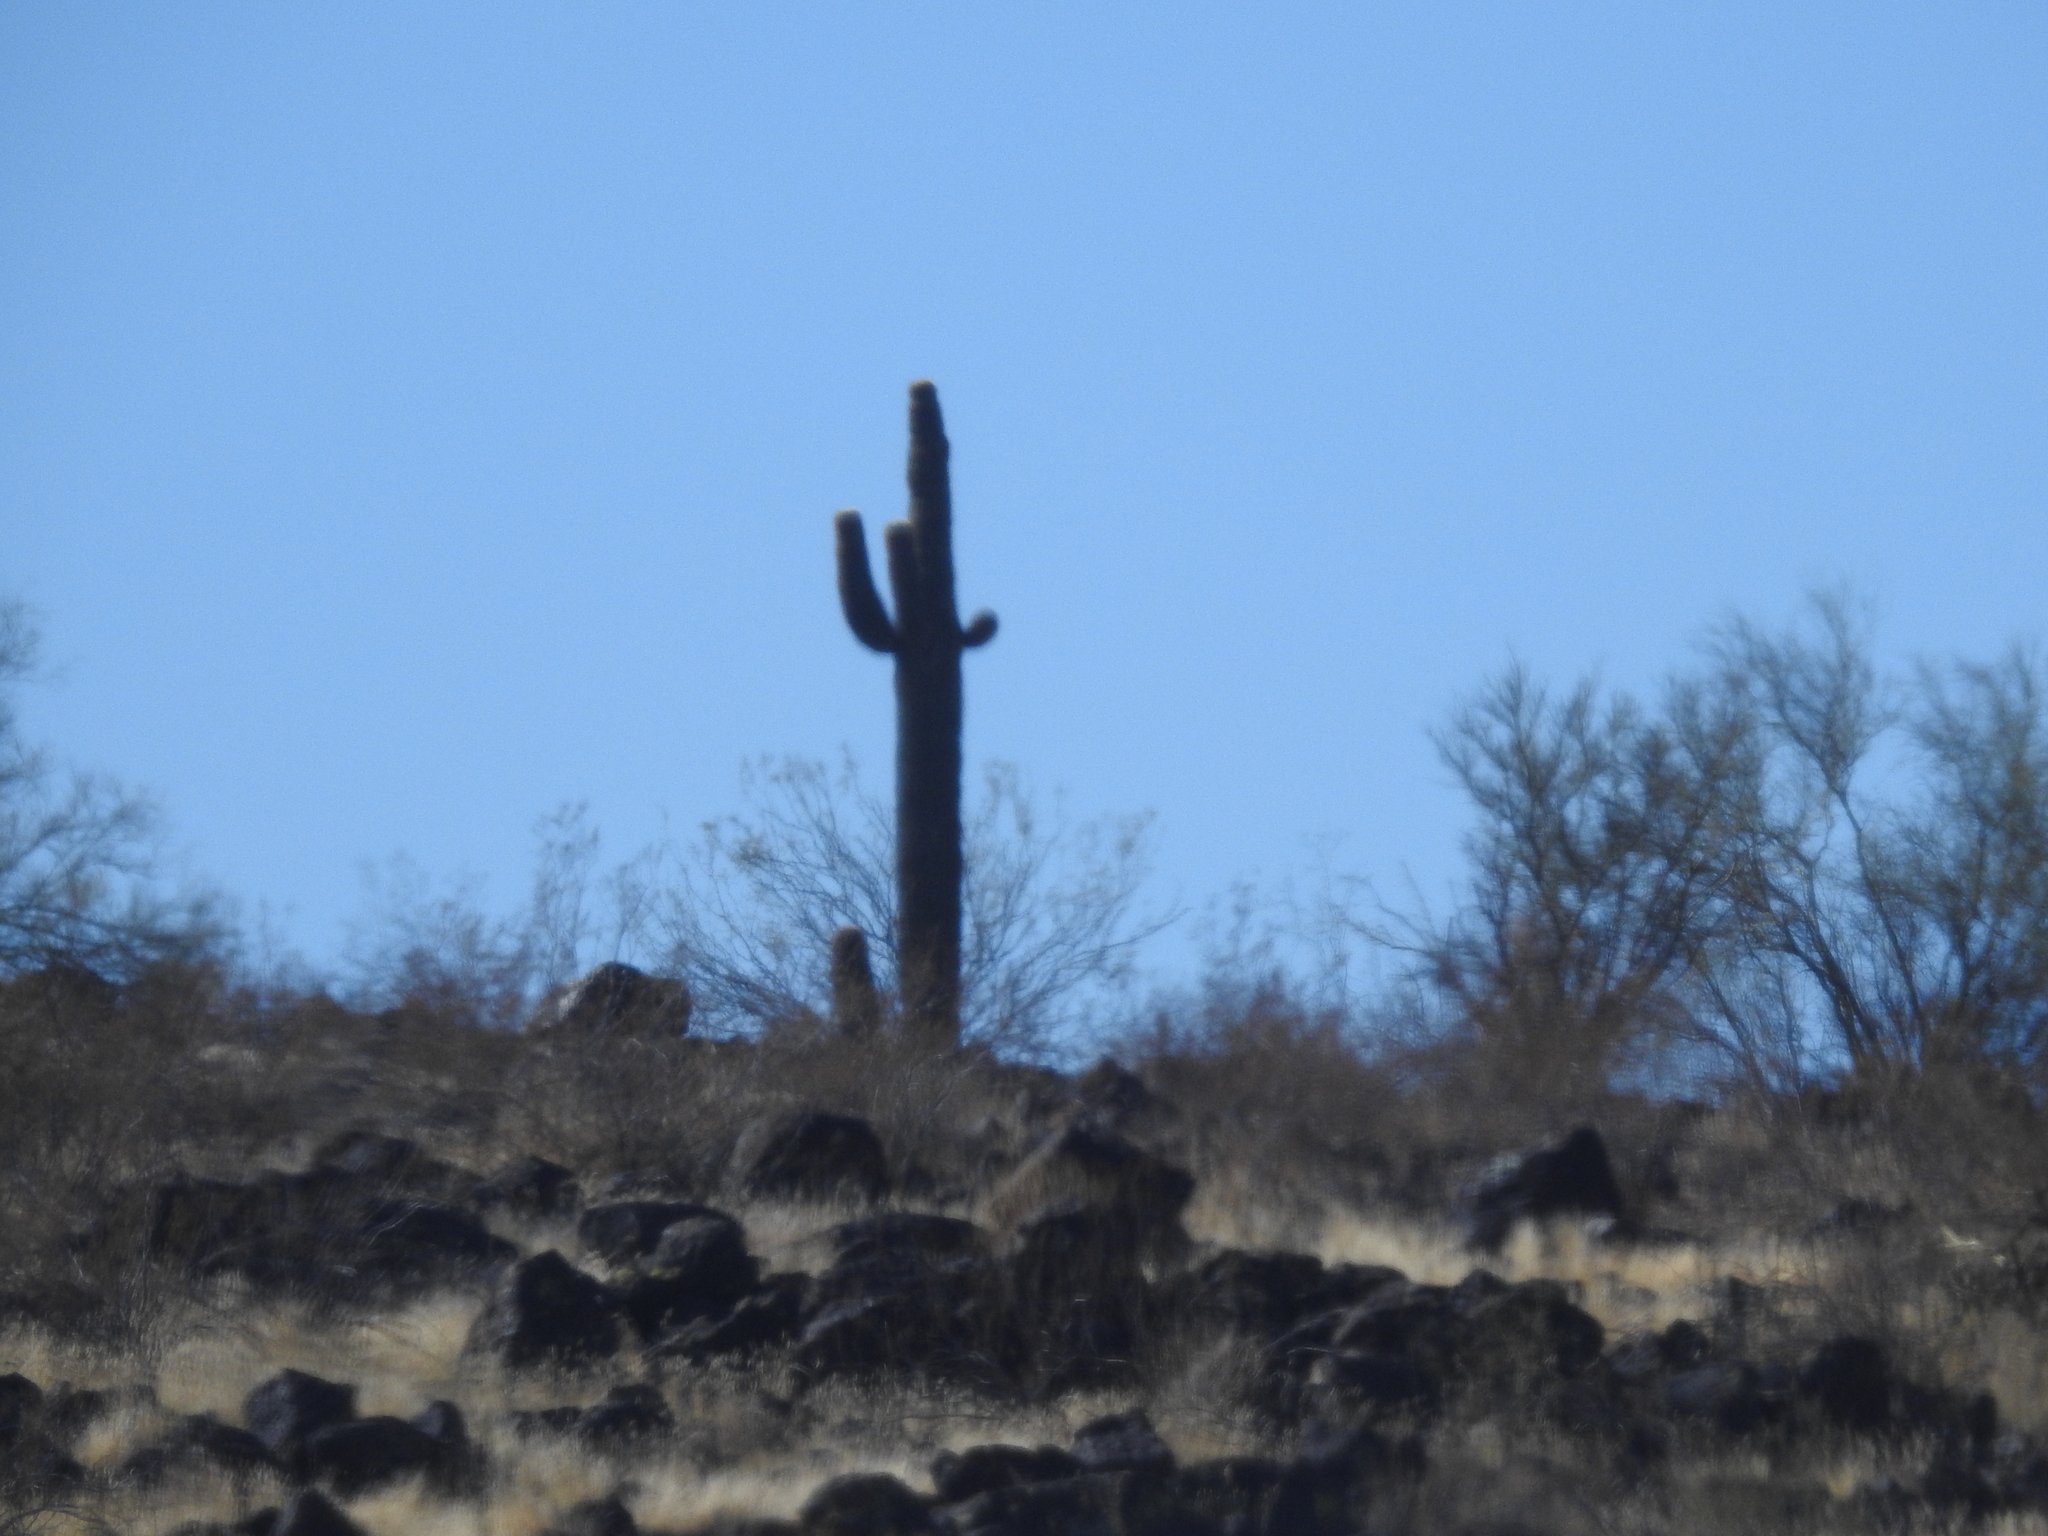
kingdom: Plantae
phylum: Tracheophyta
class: Magnoliopsida
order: Caryophyllales
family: Cactaceae
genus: Carnegiea
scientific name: Carnegiea gigantea
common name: Saguaro
